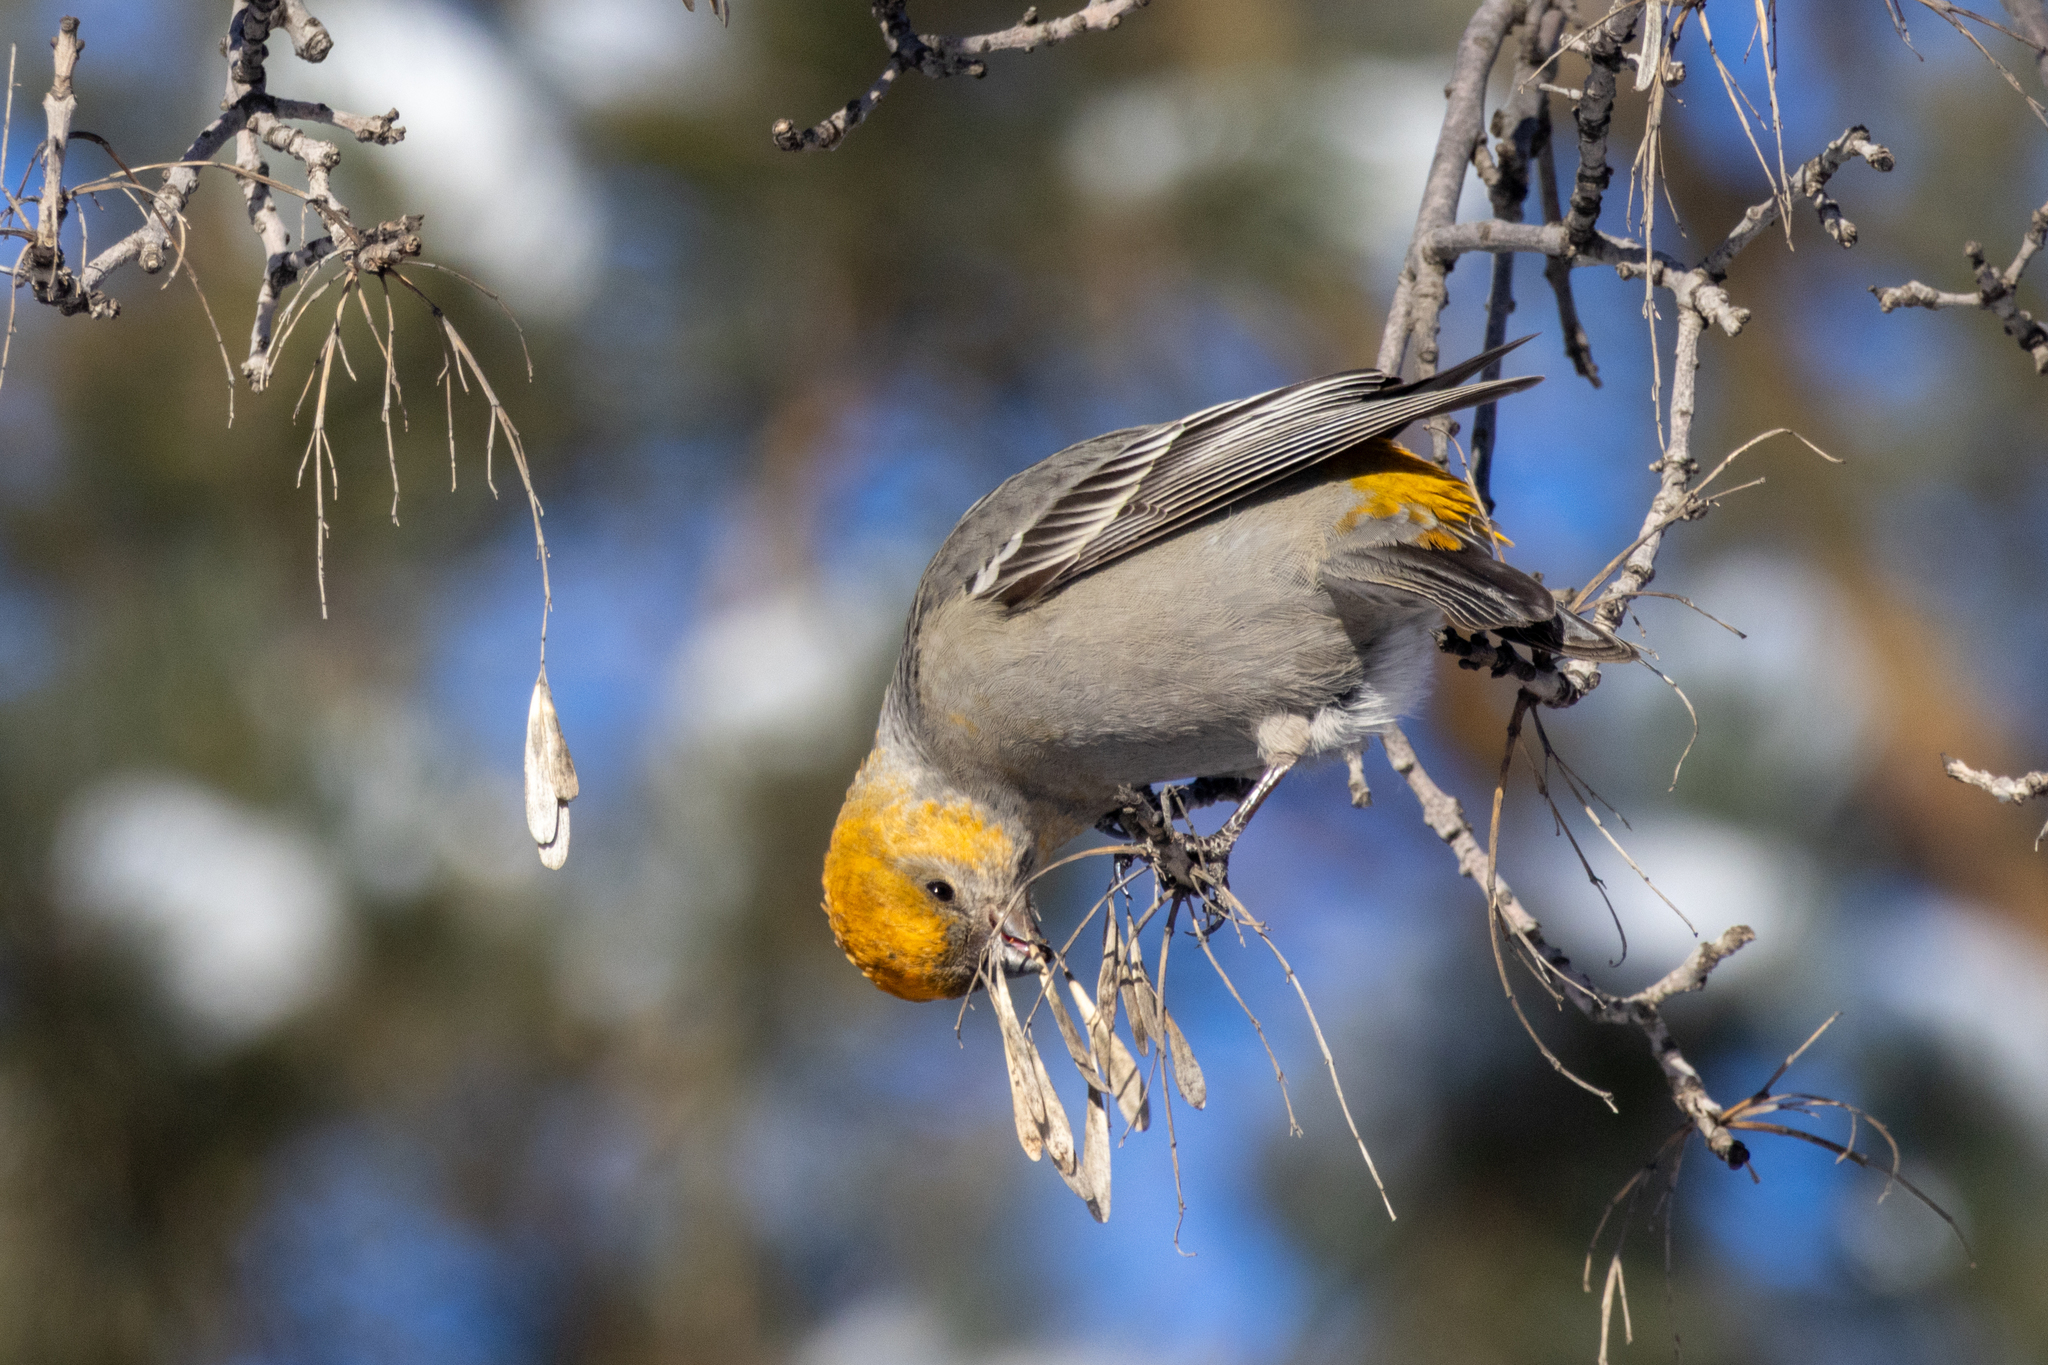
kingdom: Animalia
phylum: Chordata
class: Aves
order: Passeriformes
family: Fringillidae
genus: Pinicola
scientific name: Pinicola enucleator
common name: Pine grosbeak
